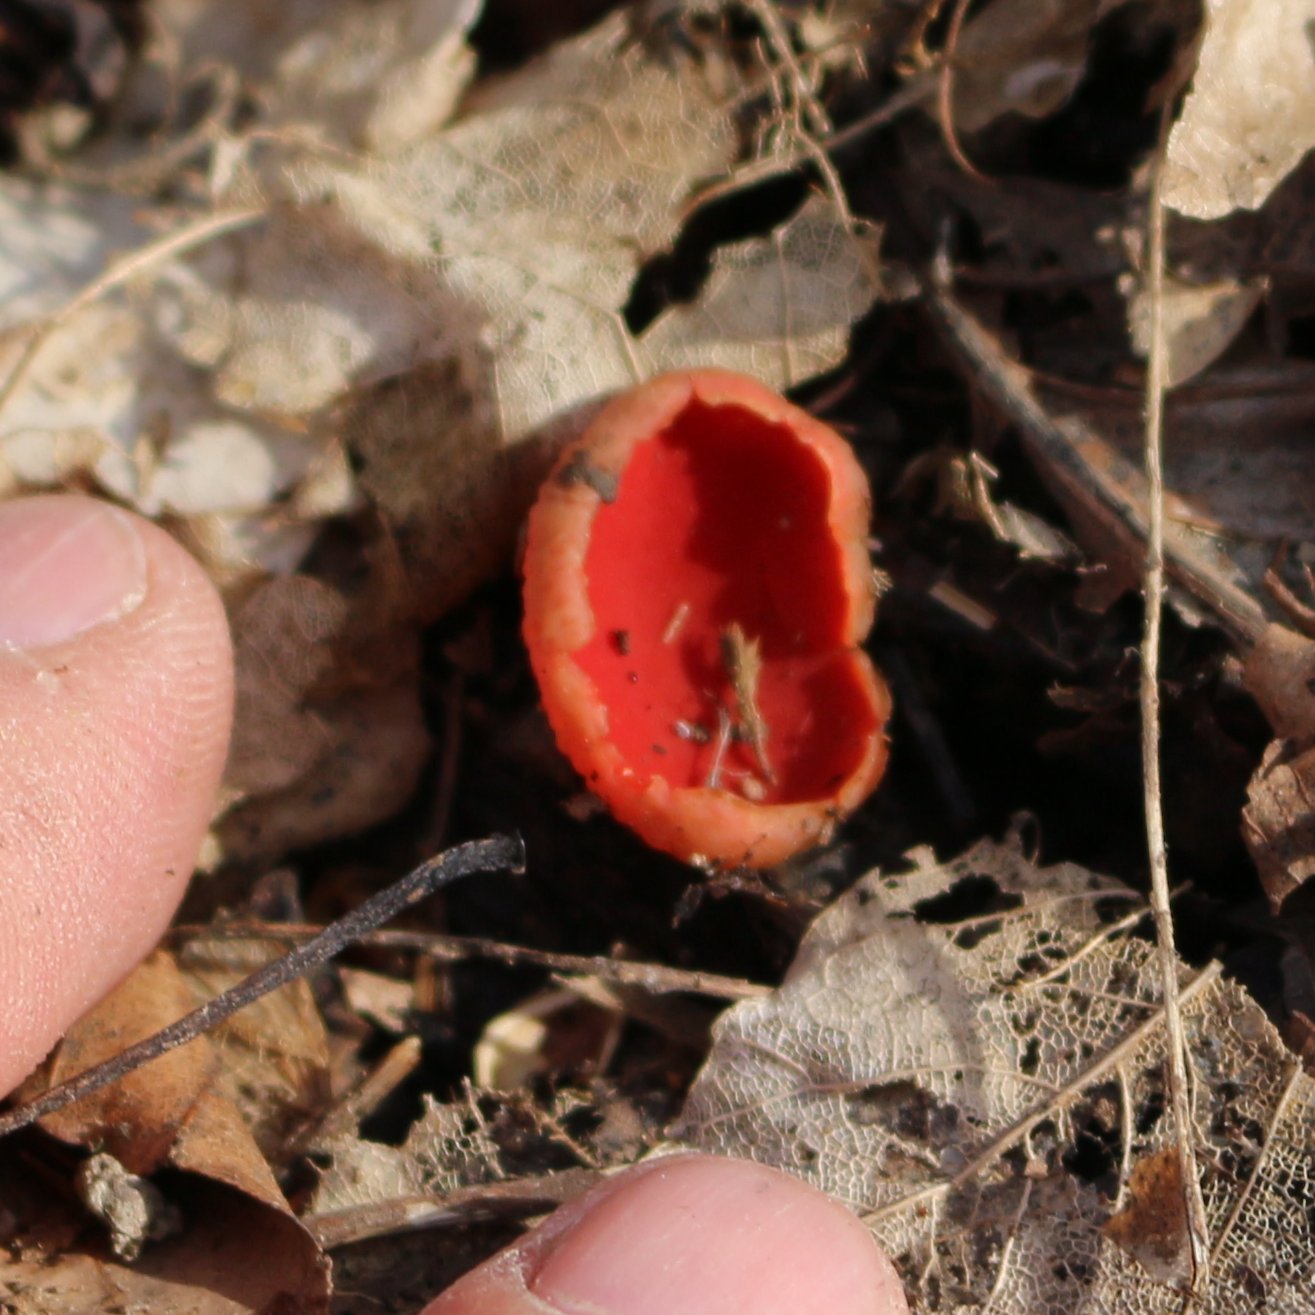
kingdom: Fungi
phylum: Ascomycota
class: Pezizomycetes
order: Pezizales
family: Sarcoscyphaceae
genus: Sarcoscypha
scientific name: Sarcoscypha
